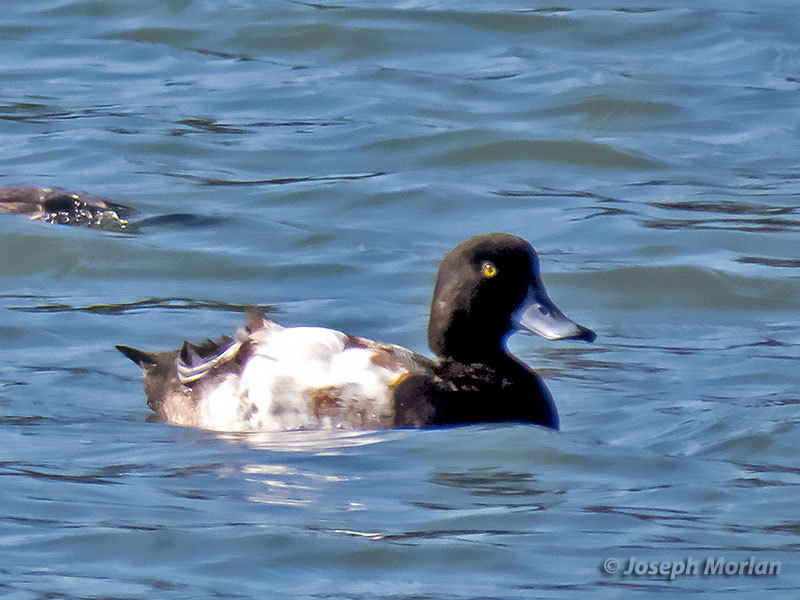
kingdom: Animalia
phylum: Chordata
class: Aves
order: Anseriformes
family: Anatidae
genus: Aythya
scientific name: Aythya marila
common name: Greater scaup
